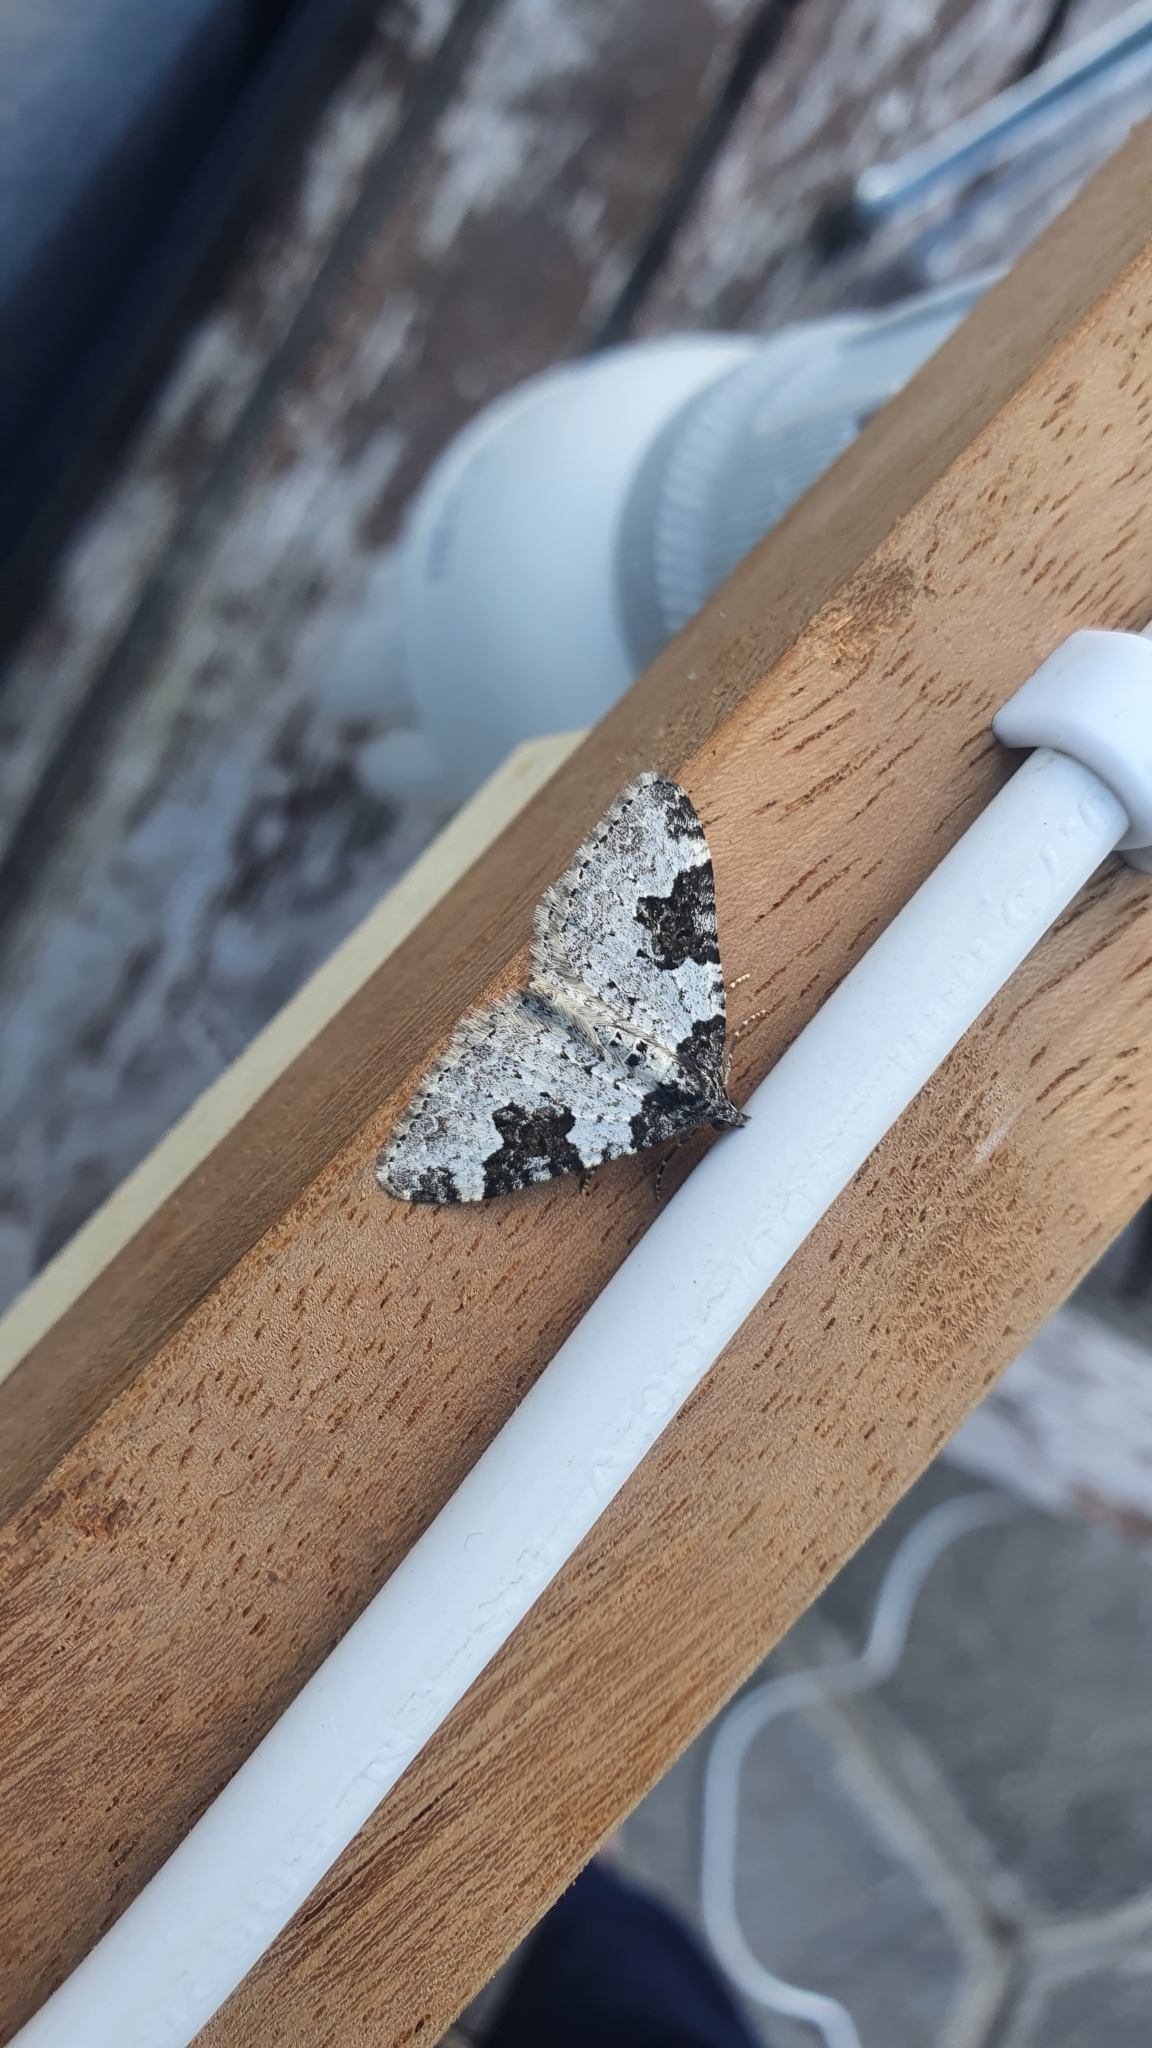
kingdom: Animalia
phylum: Arthropoda
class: Insecta
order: Lepidoptera
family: Geometridae
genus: Xanthorhoe
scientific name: Xanthorhoe fluctuata
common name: Garden carpet
